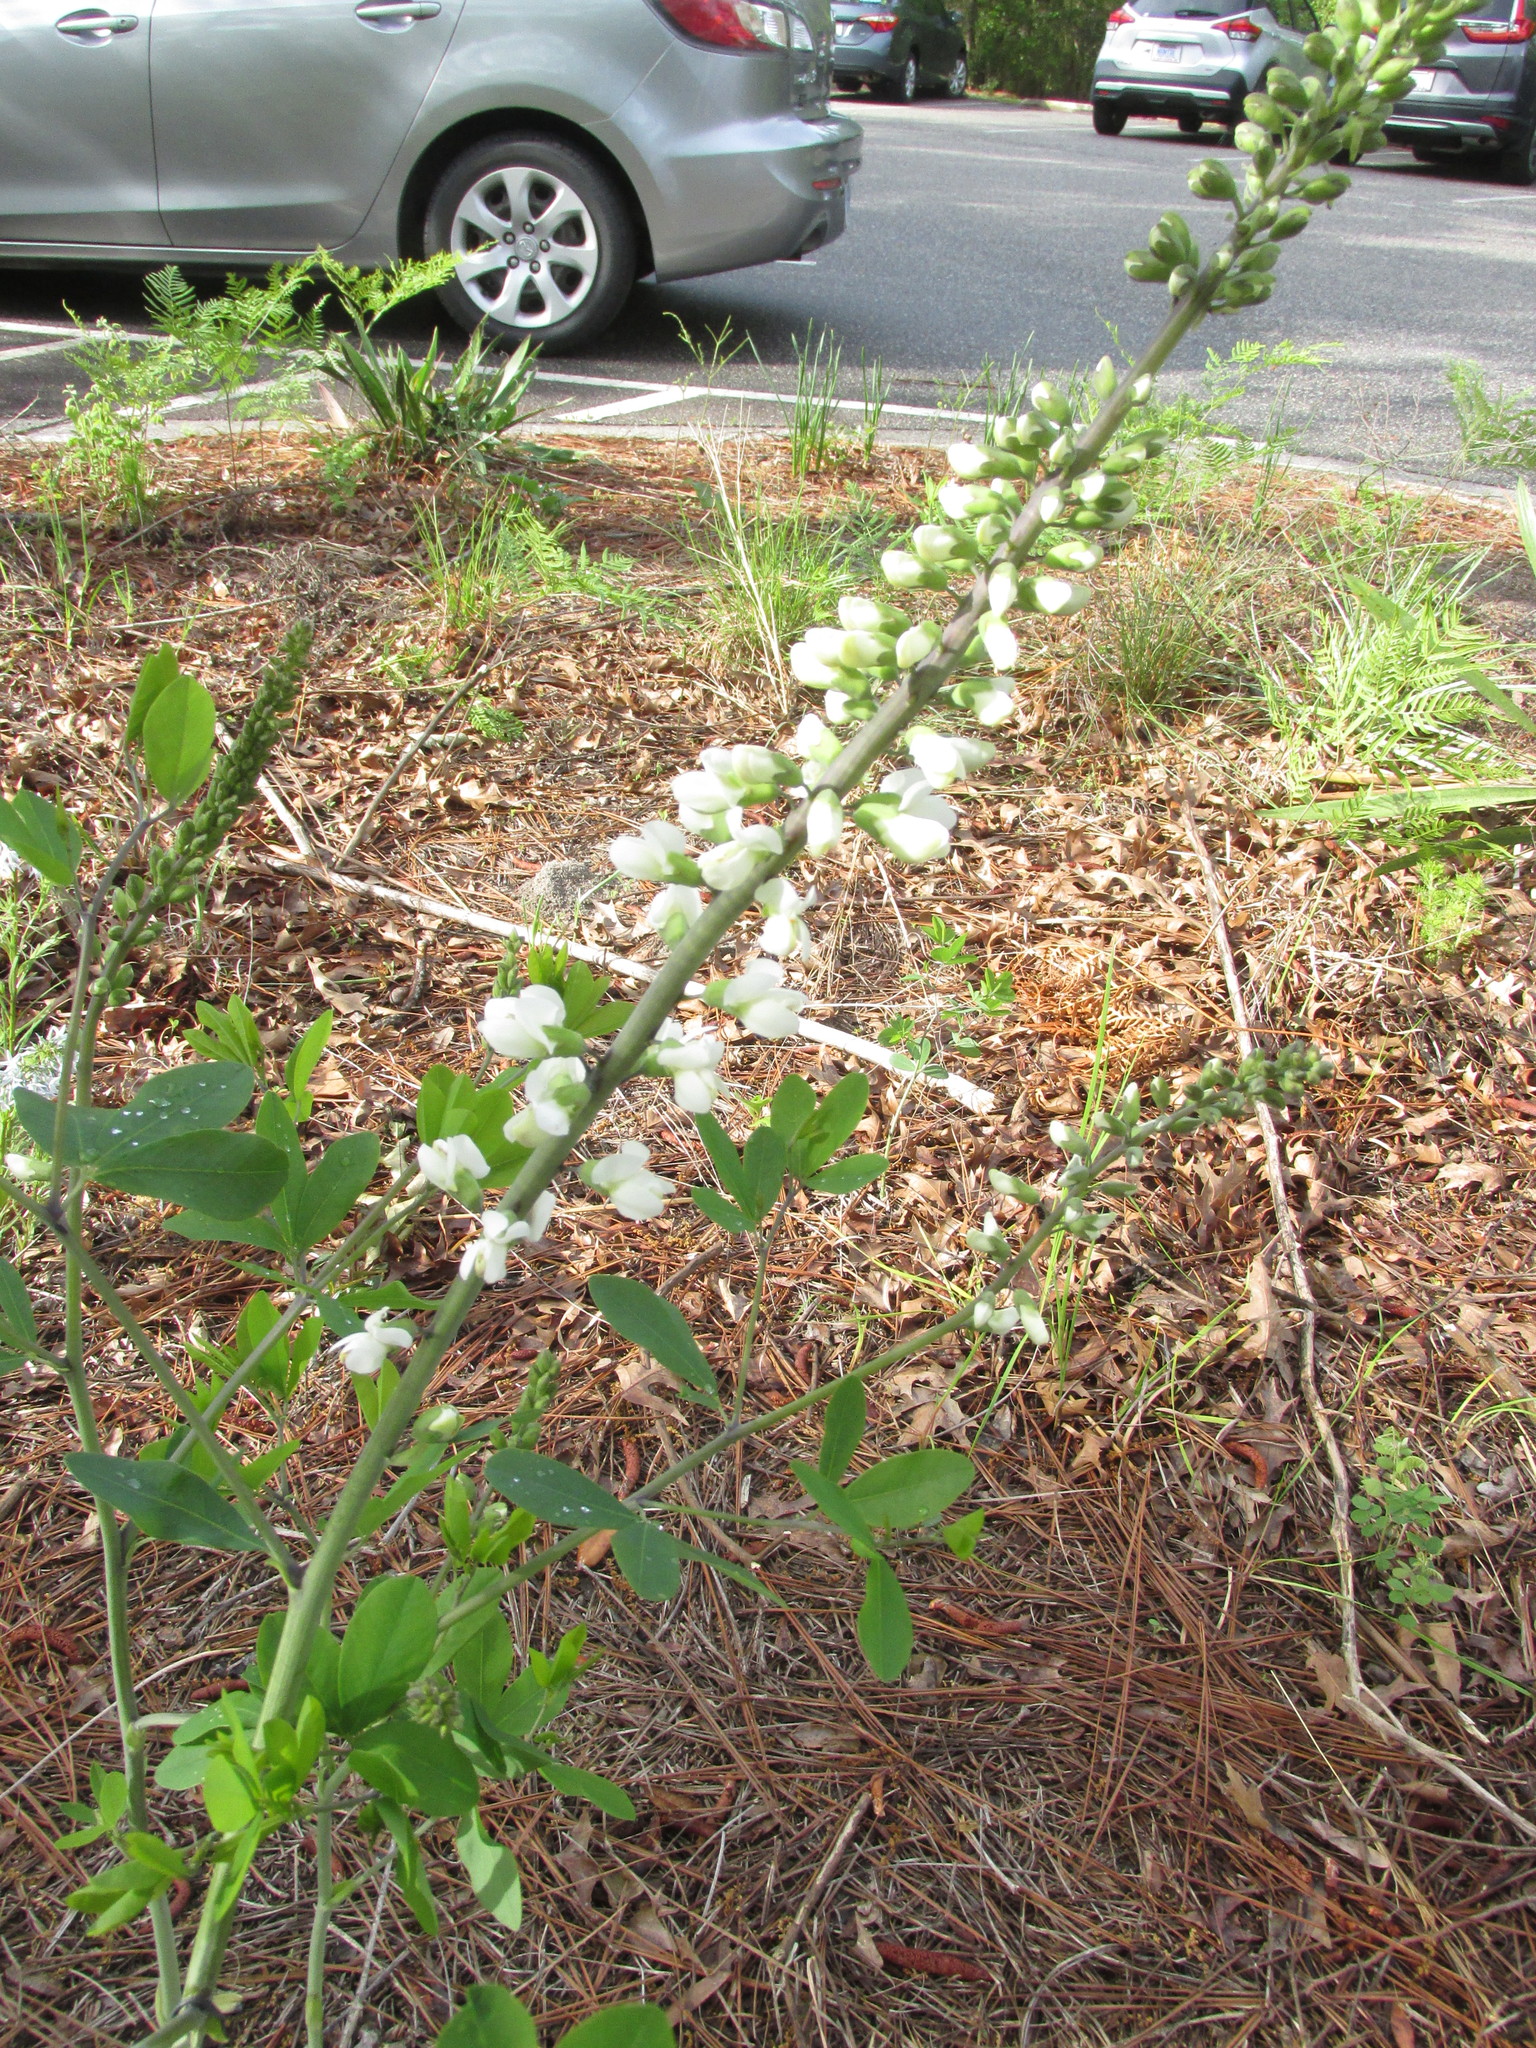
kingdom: Plantae
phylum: Tracheophyta
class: Magnoliopsida
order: Fabales
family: Fabaceae
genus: Baptisia
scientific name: Baptisia alba
